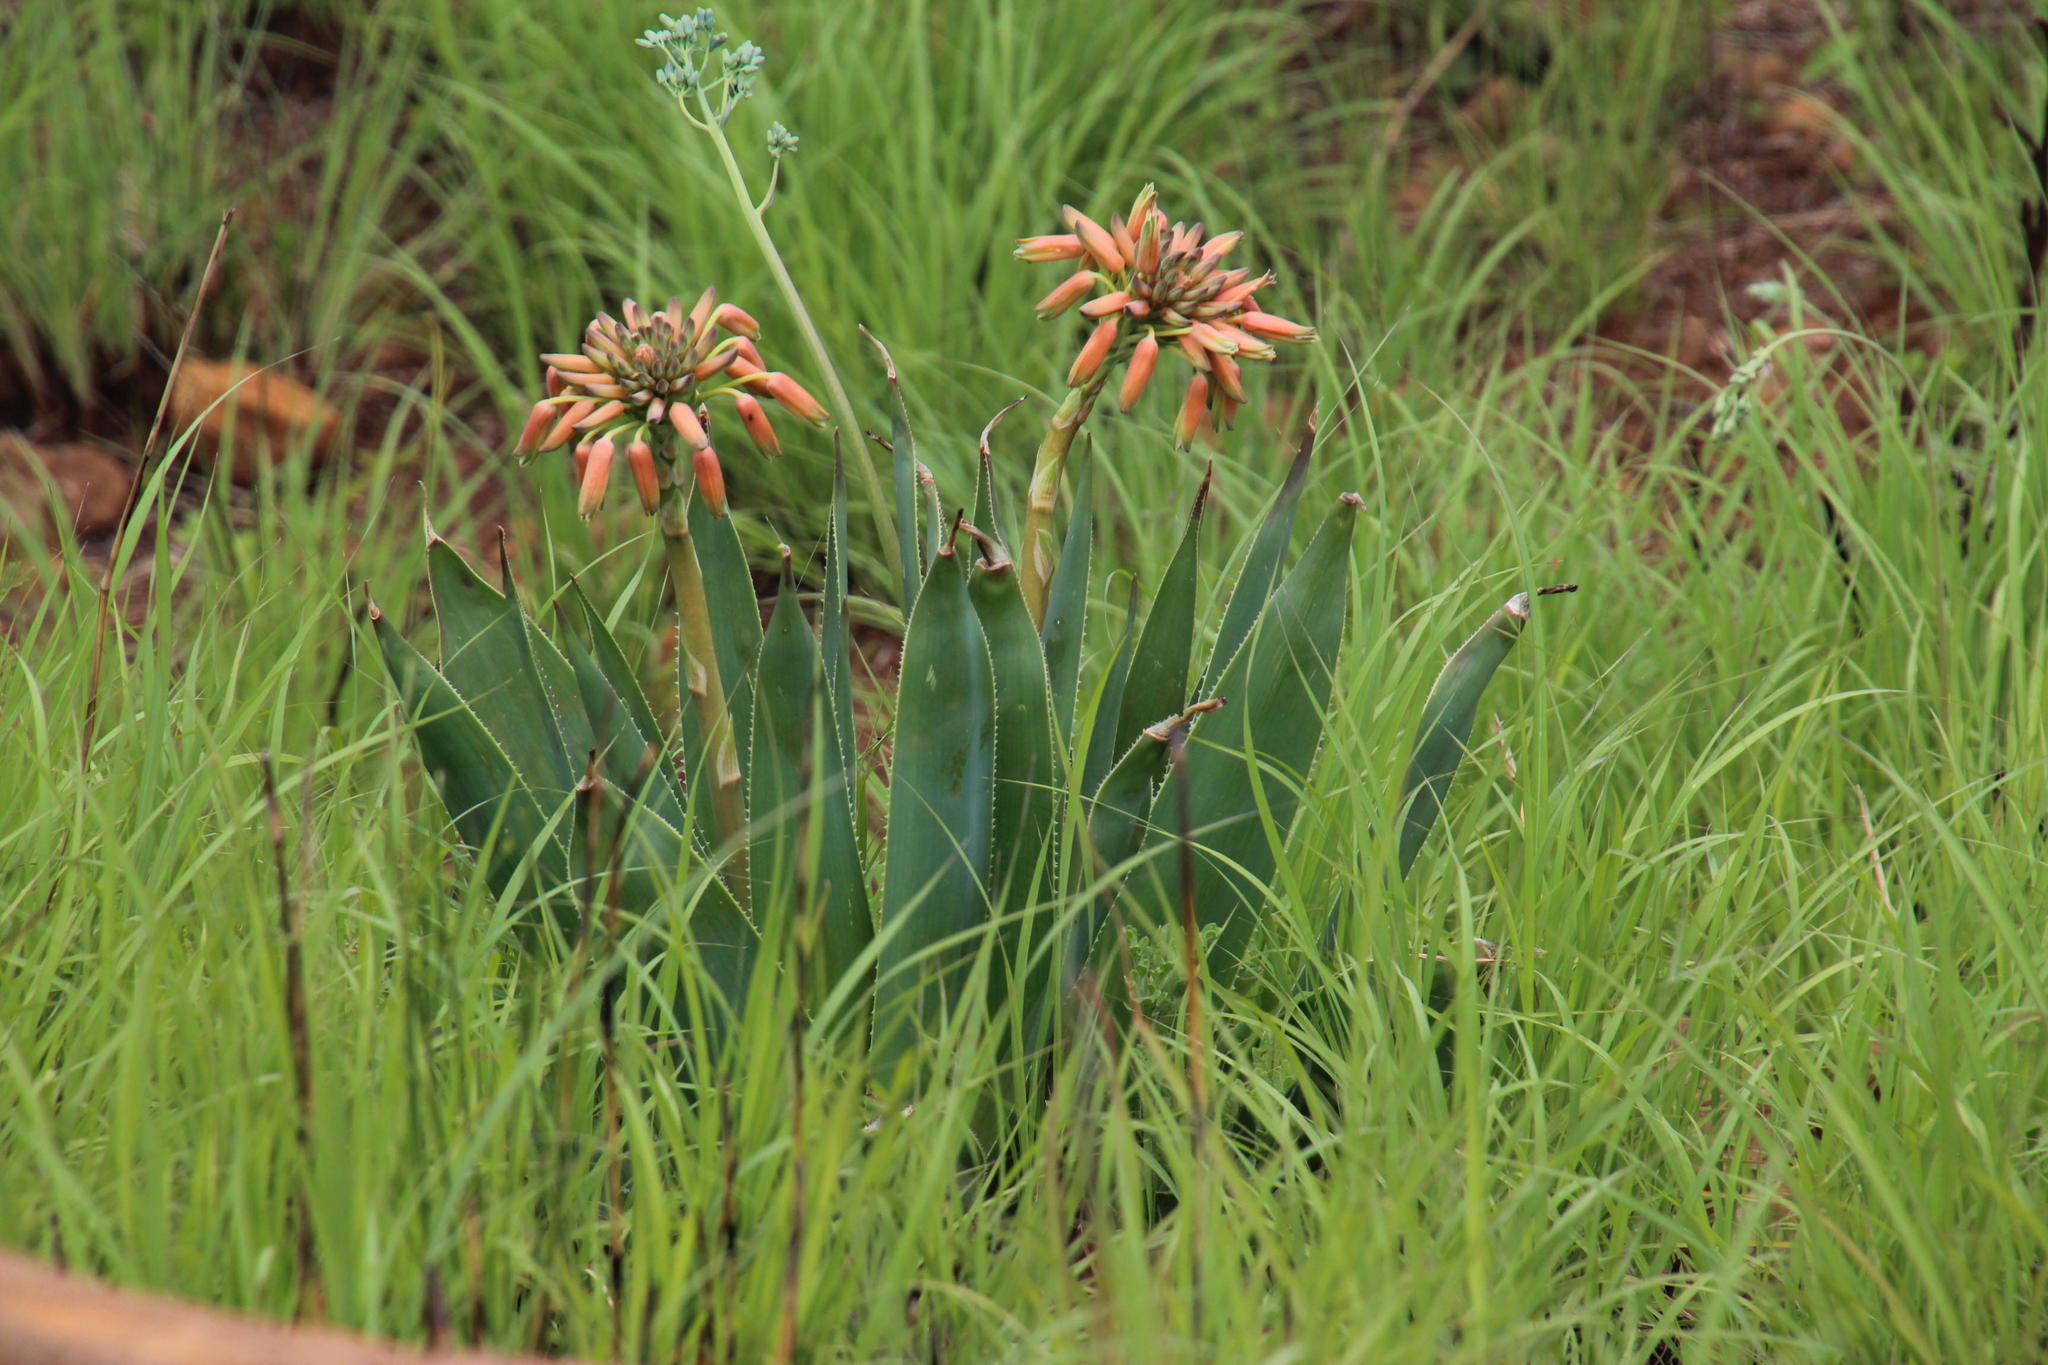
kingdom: Plantae
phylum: Tracheophyta
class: Liliopsida
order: Asparagales
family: Asphodelaceae
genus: Aloe
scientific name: Aloe ecklonis
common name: Ecklon's aloe
